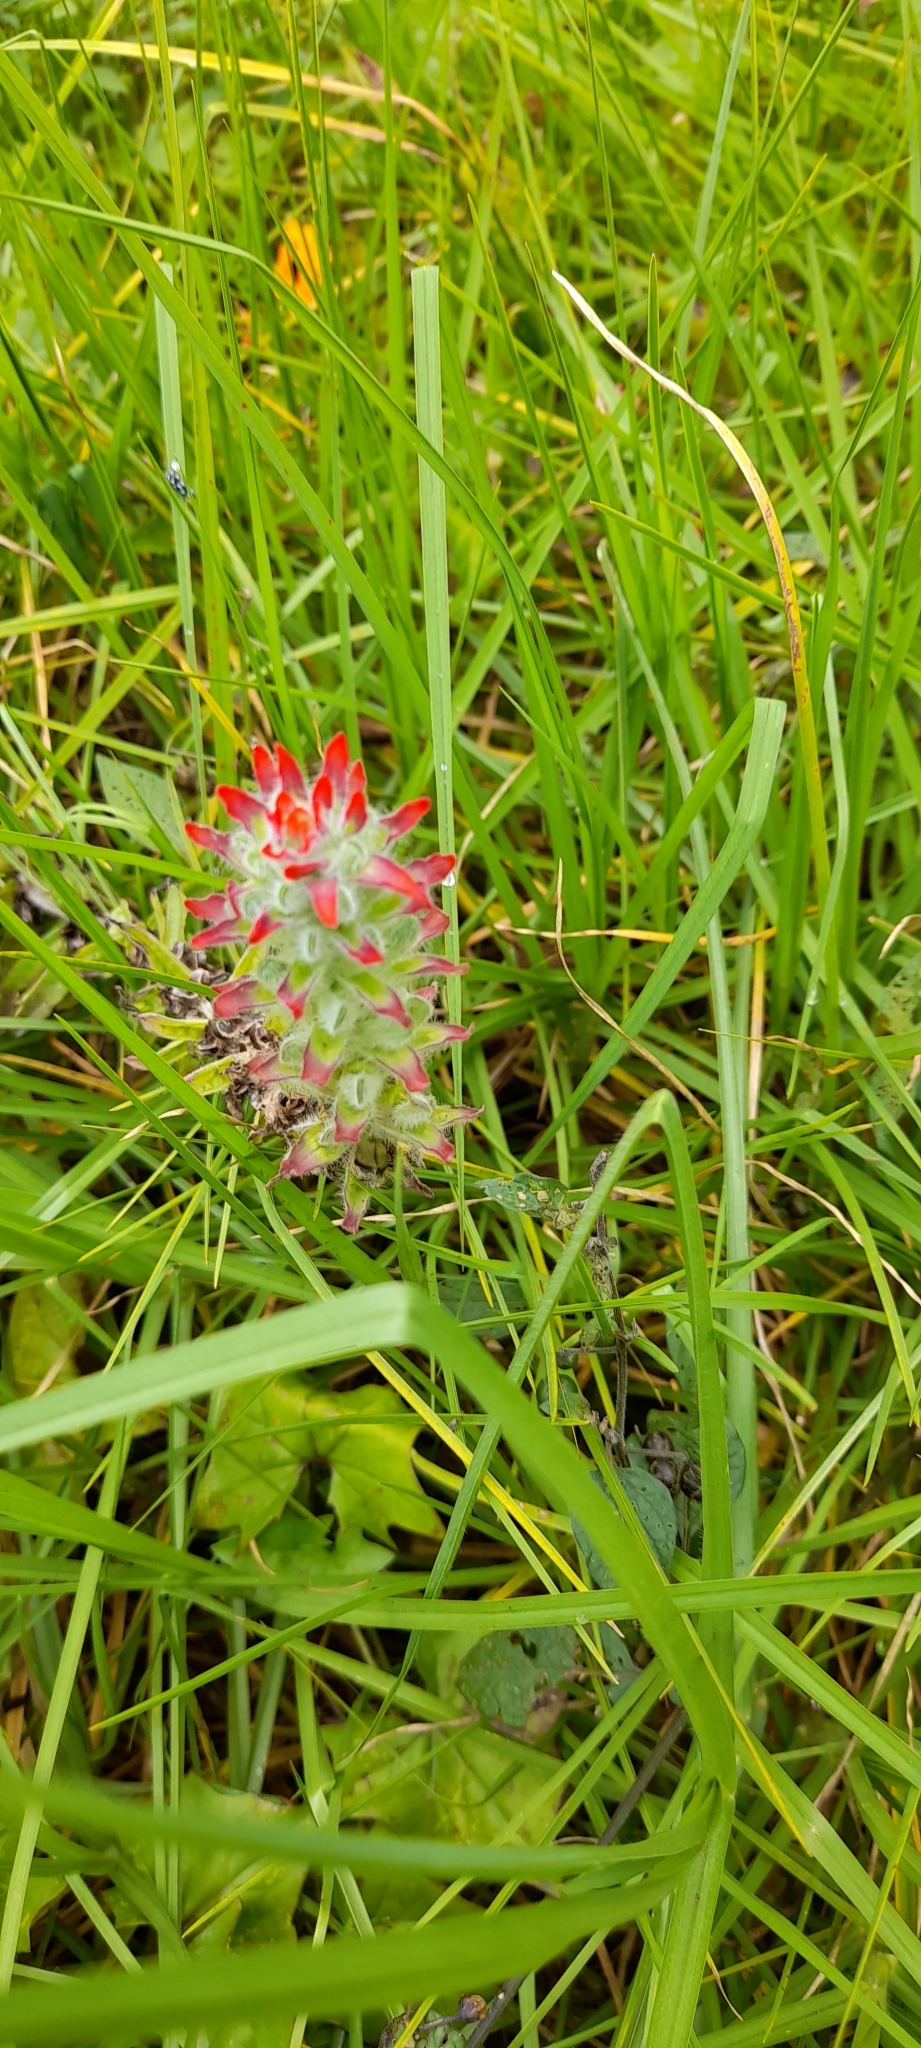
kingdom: Plantae
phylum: Tracheophyta
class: Magnoliopsida
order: Lamiales
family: Orobanchaceae
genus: Castilleja
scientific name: Castilleja arvensis
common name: Indian paintbrush
